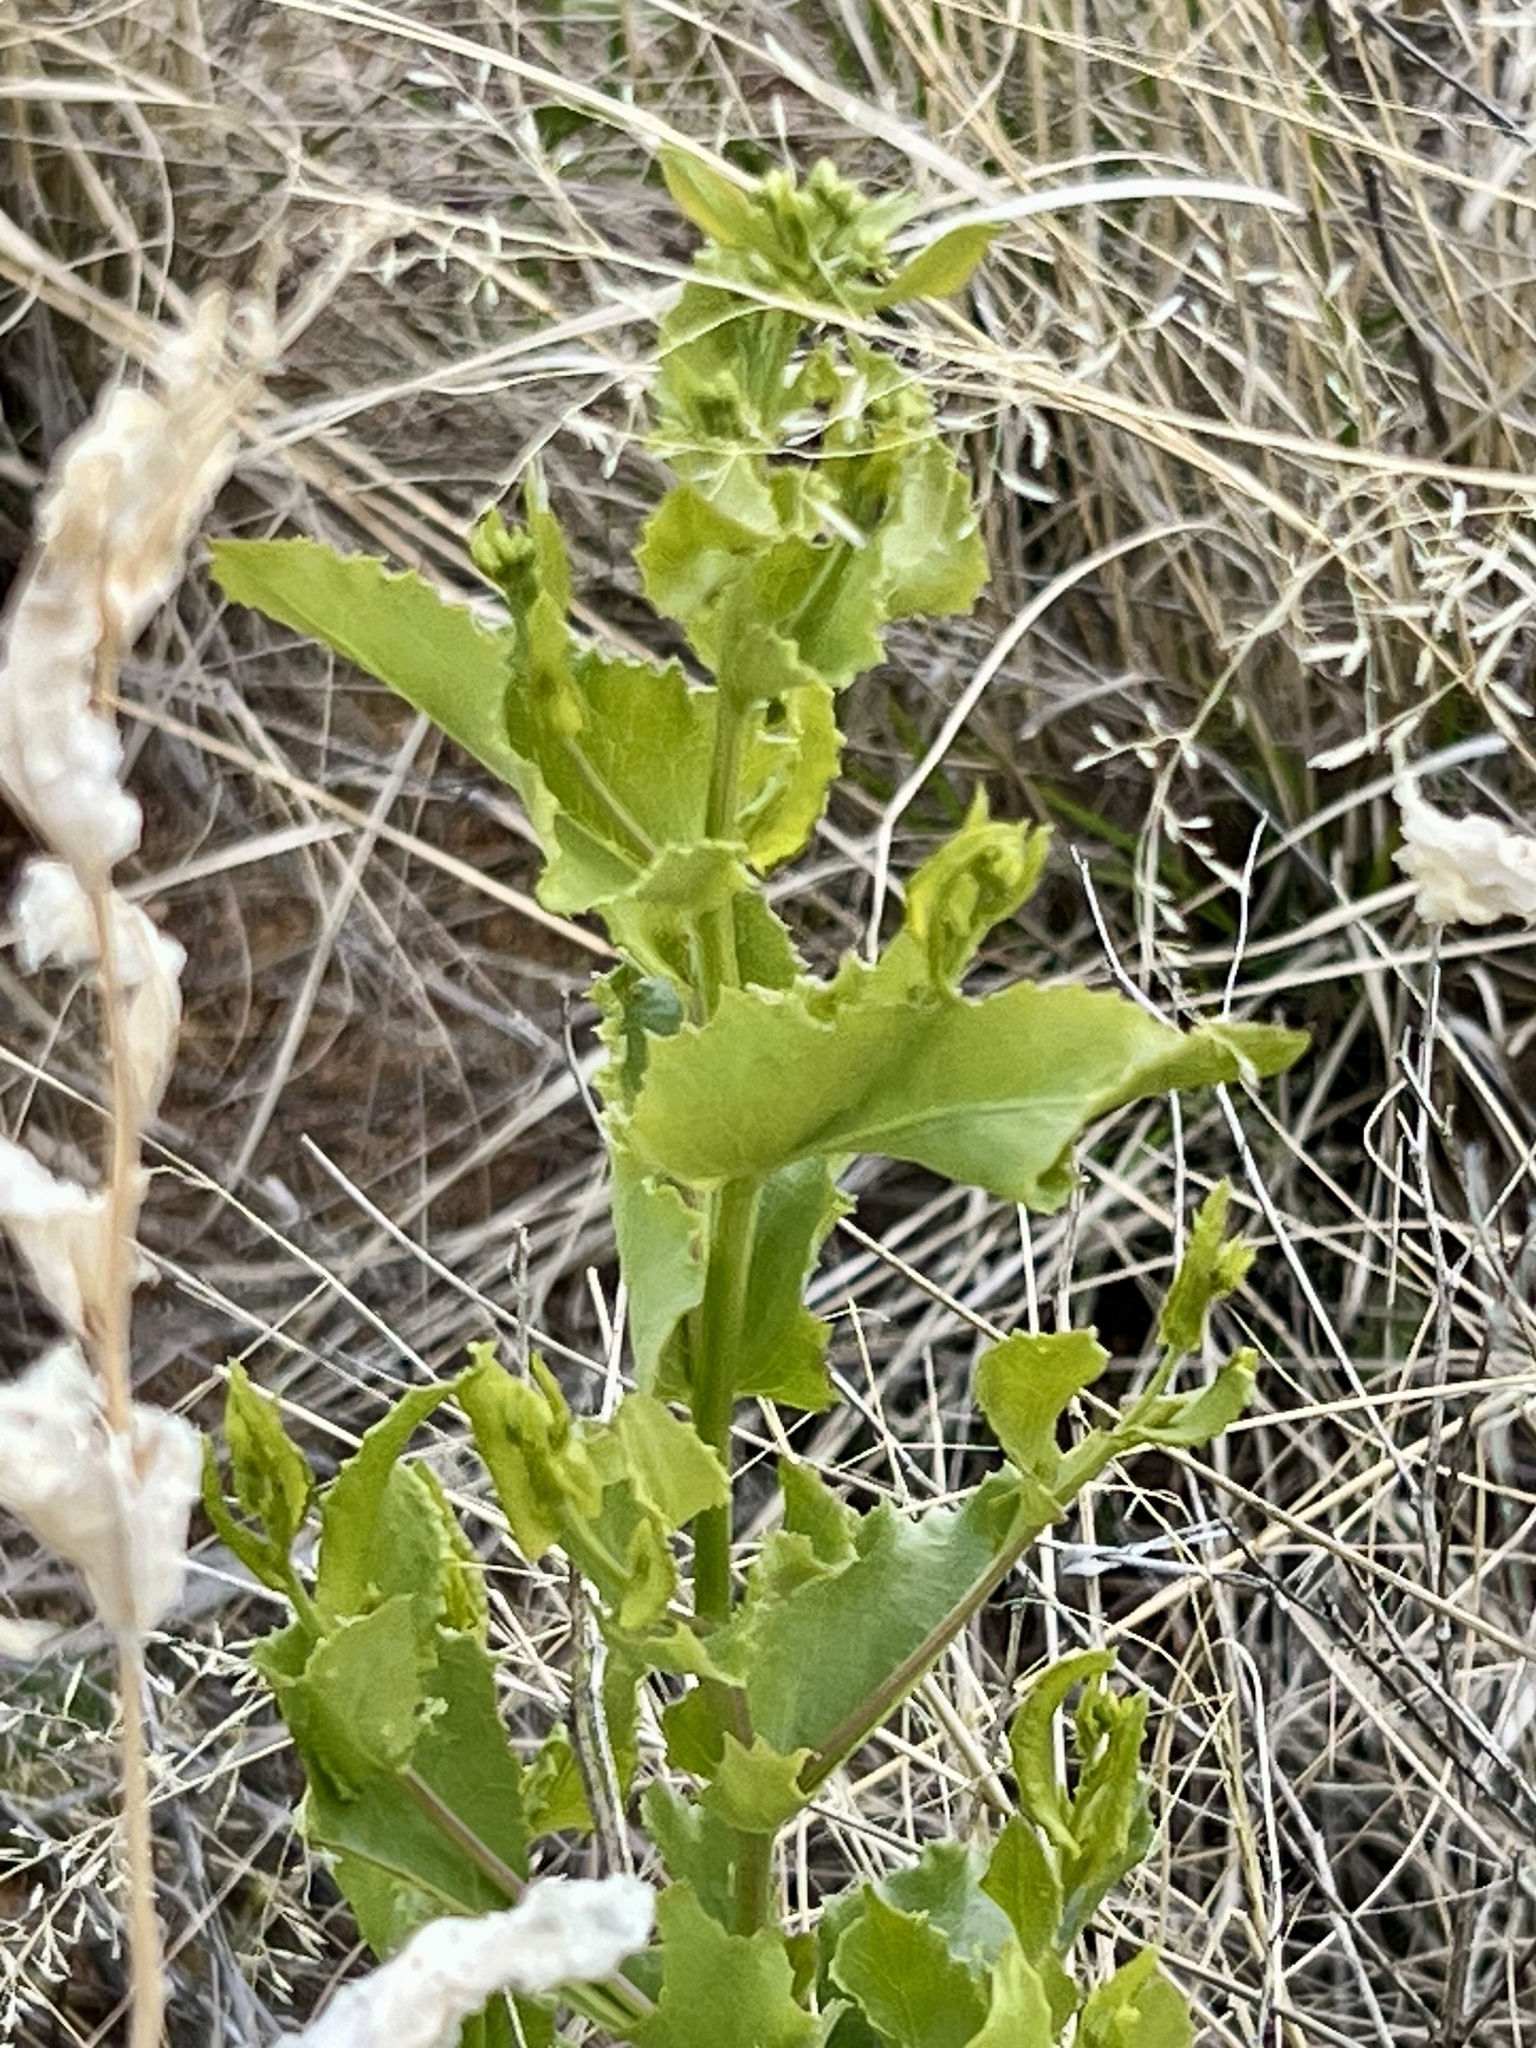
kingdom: Plantae
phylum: Tracheophyta
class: Magnoliopsida
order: Asterales
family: Asteraceae
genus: Acourtia
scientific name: Acourtia wrightii
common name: Brownfoot
